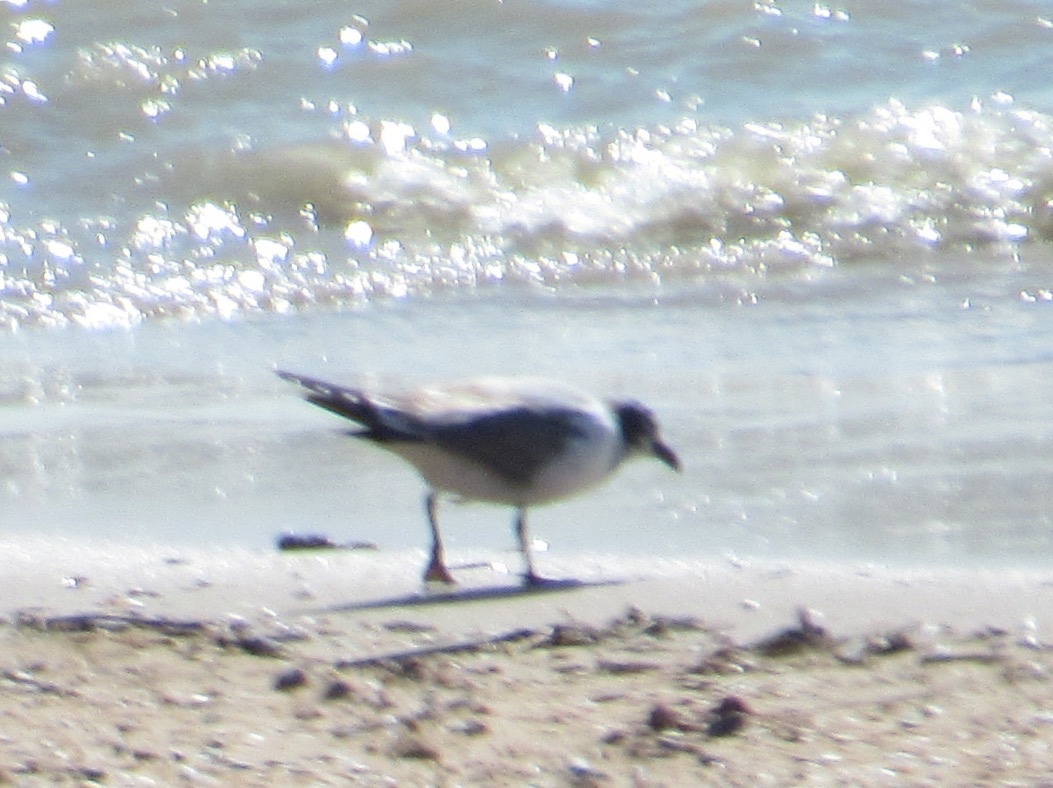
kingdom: Animalia
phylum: Chordata
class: Aves
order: Charadriiformes
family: Laridae
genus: Leucophaeus
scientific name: Leucophaeus pipixcan
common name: Franklin's gull
